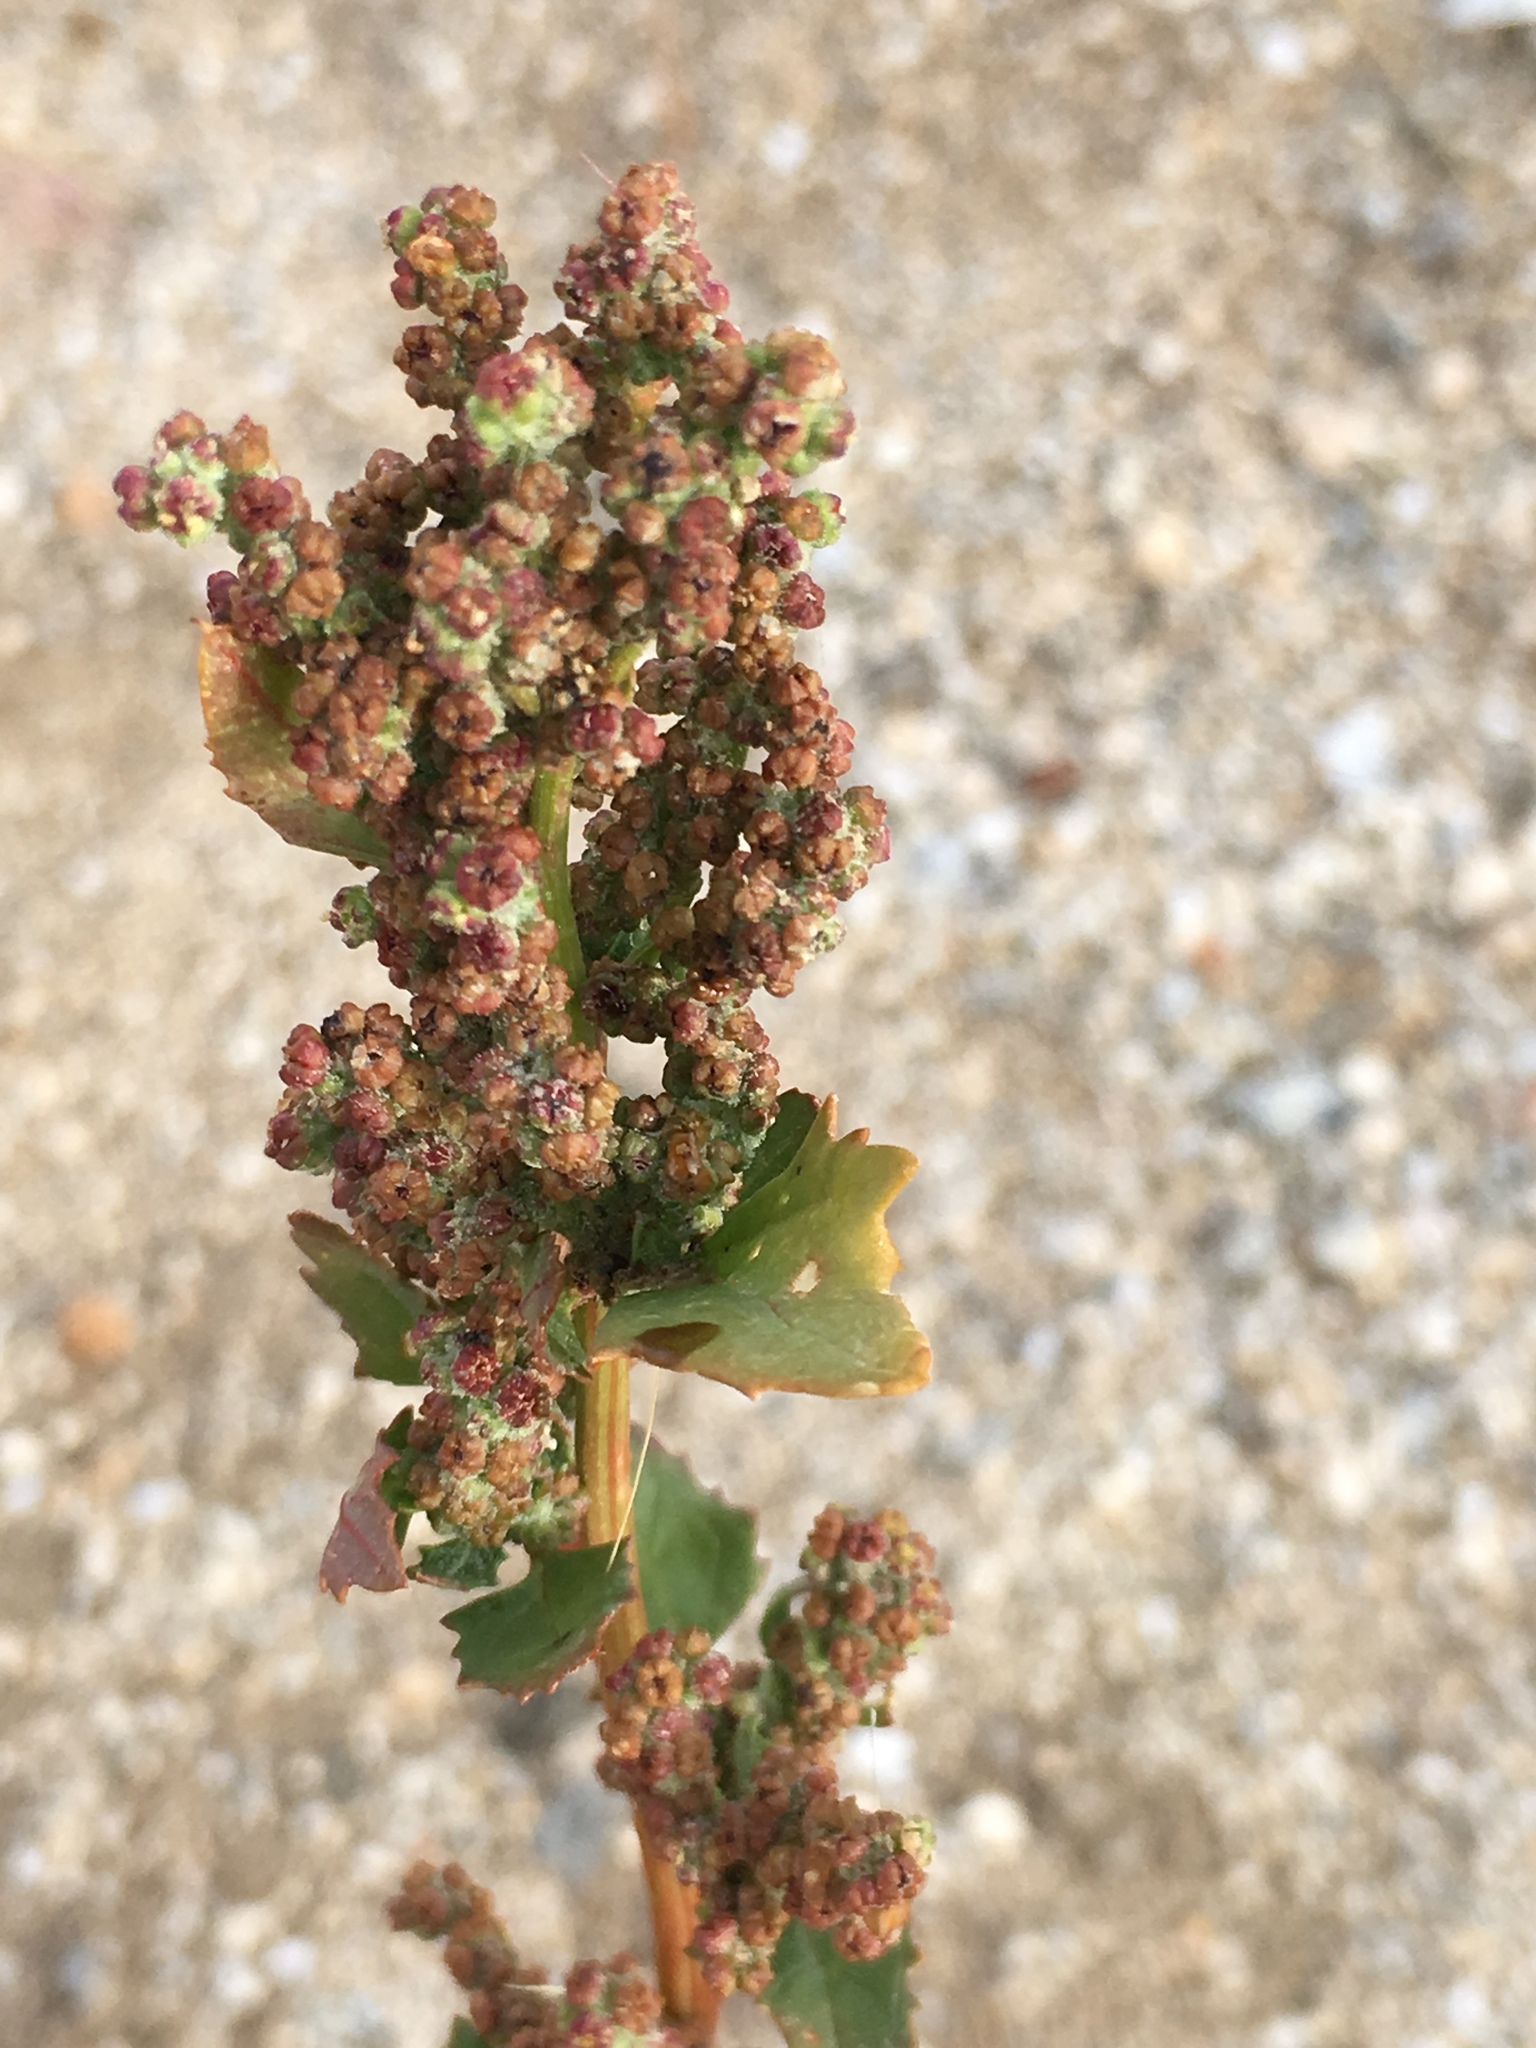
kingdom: Plantae
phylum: Tracheophyta
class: Magnoliopsida
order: Caryophyllales
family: Amaranthaceae
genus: Chenopodiastrum
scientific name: Chenopodiastrum murale
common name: Sowbane
